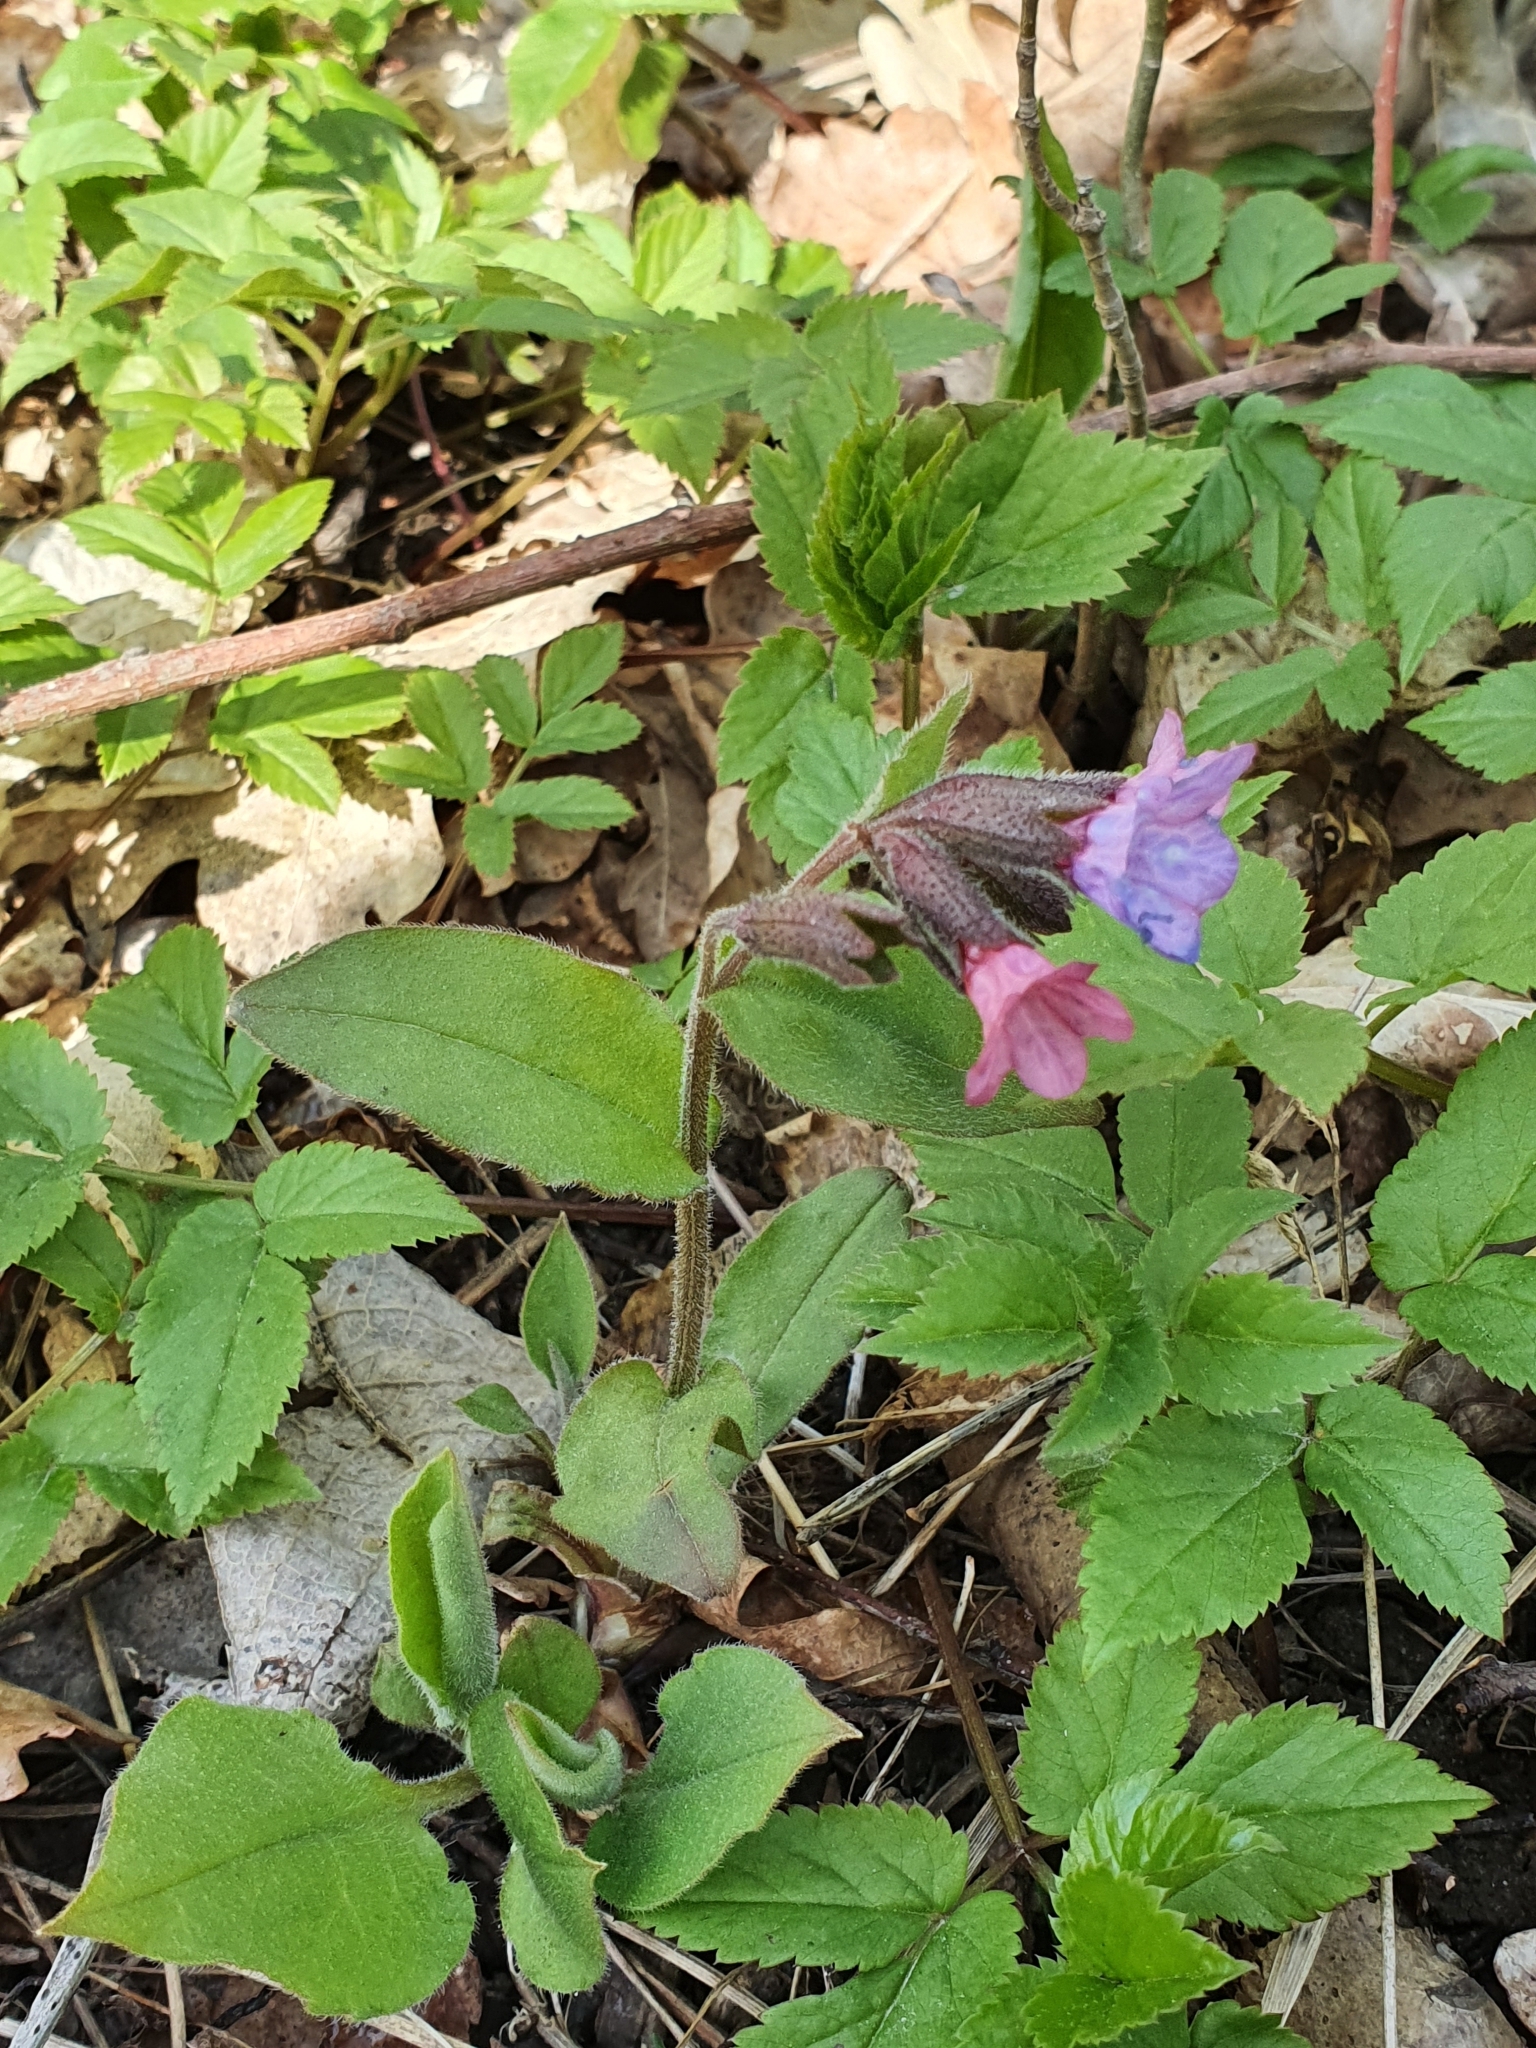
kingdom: Plantae
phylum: Tracheophyta
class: Magnoliopsida
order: Boraginales
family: Boraginaceae
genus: Pulmonaria
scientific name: Pulmonaria obscura
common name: Suffolk lungwort
